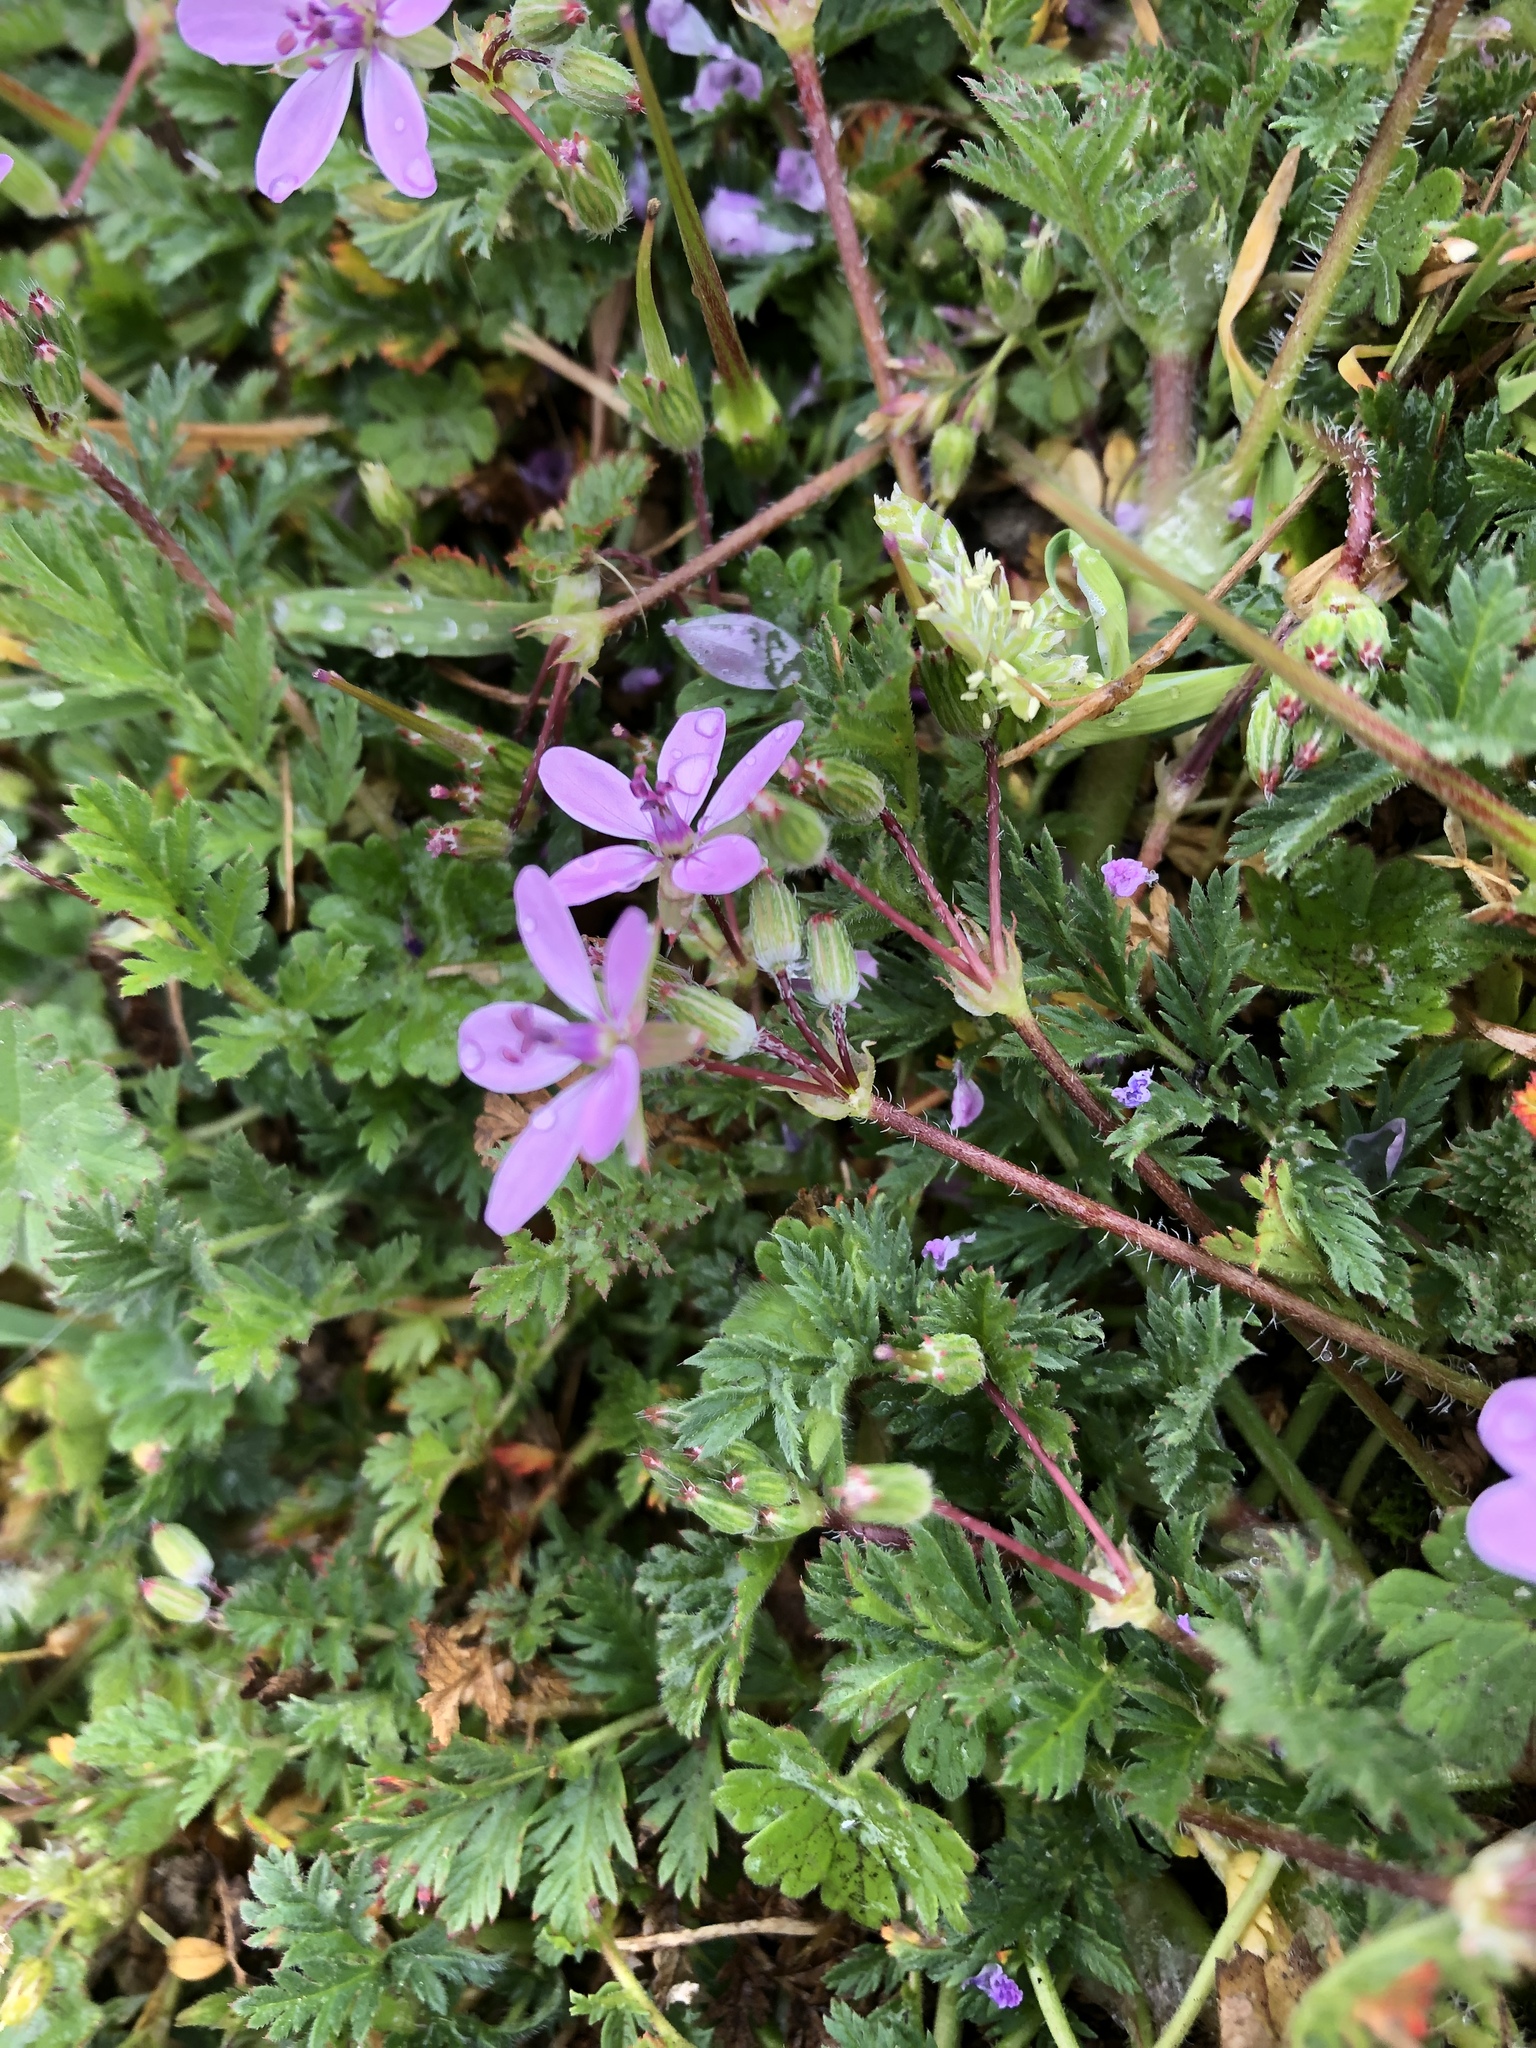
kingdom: Plantae
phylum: Tracheophyta
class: Magnoliopsida
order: Geraniales
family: Geraniaceae
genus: Erodium
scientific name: Erodium cicutarium
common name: Common stork's-bill
